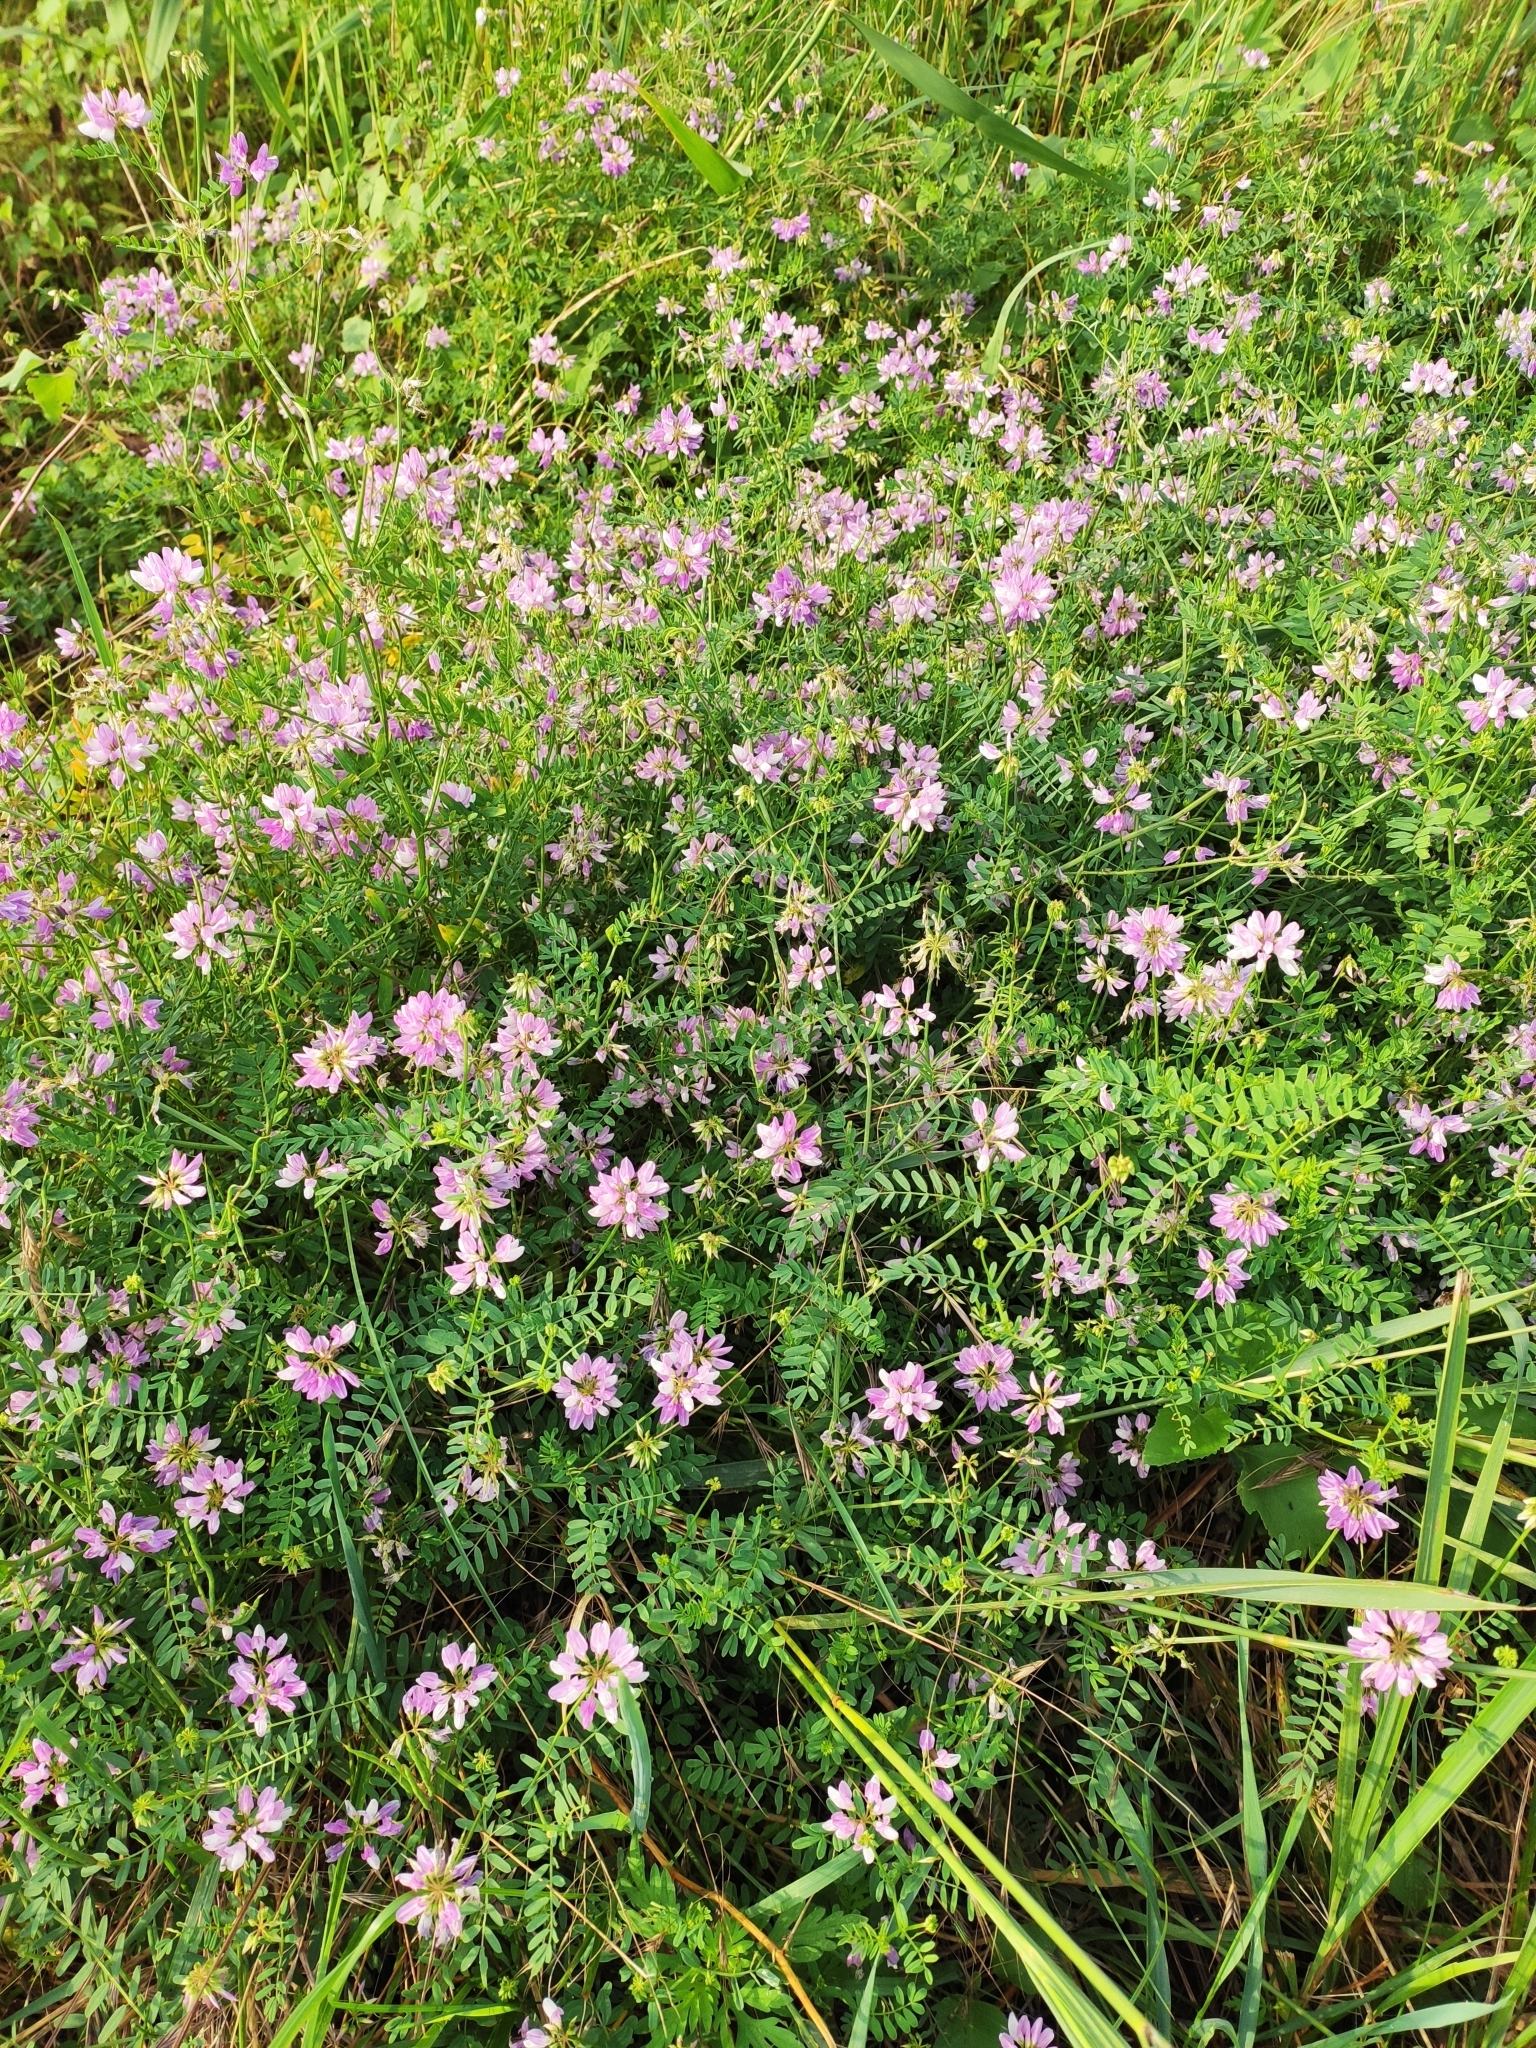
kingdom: Plantae
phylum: Tracheophyta
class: Magnoliopsida
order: Fabales
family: Fabaceae
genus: Coronilla
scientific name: Coronilla varia
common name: Crownvetch
